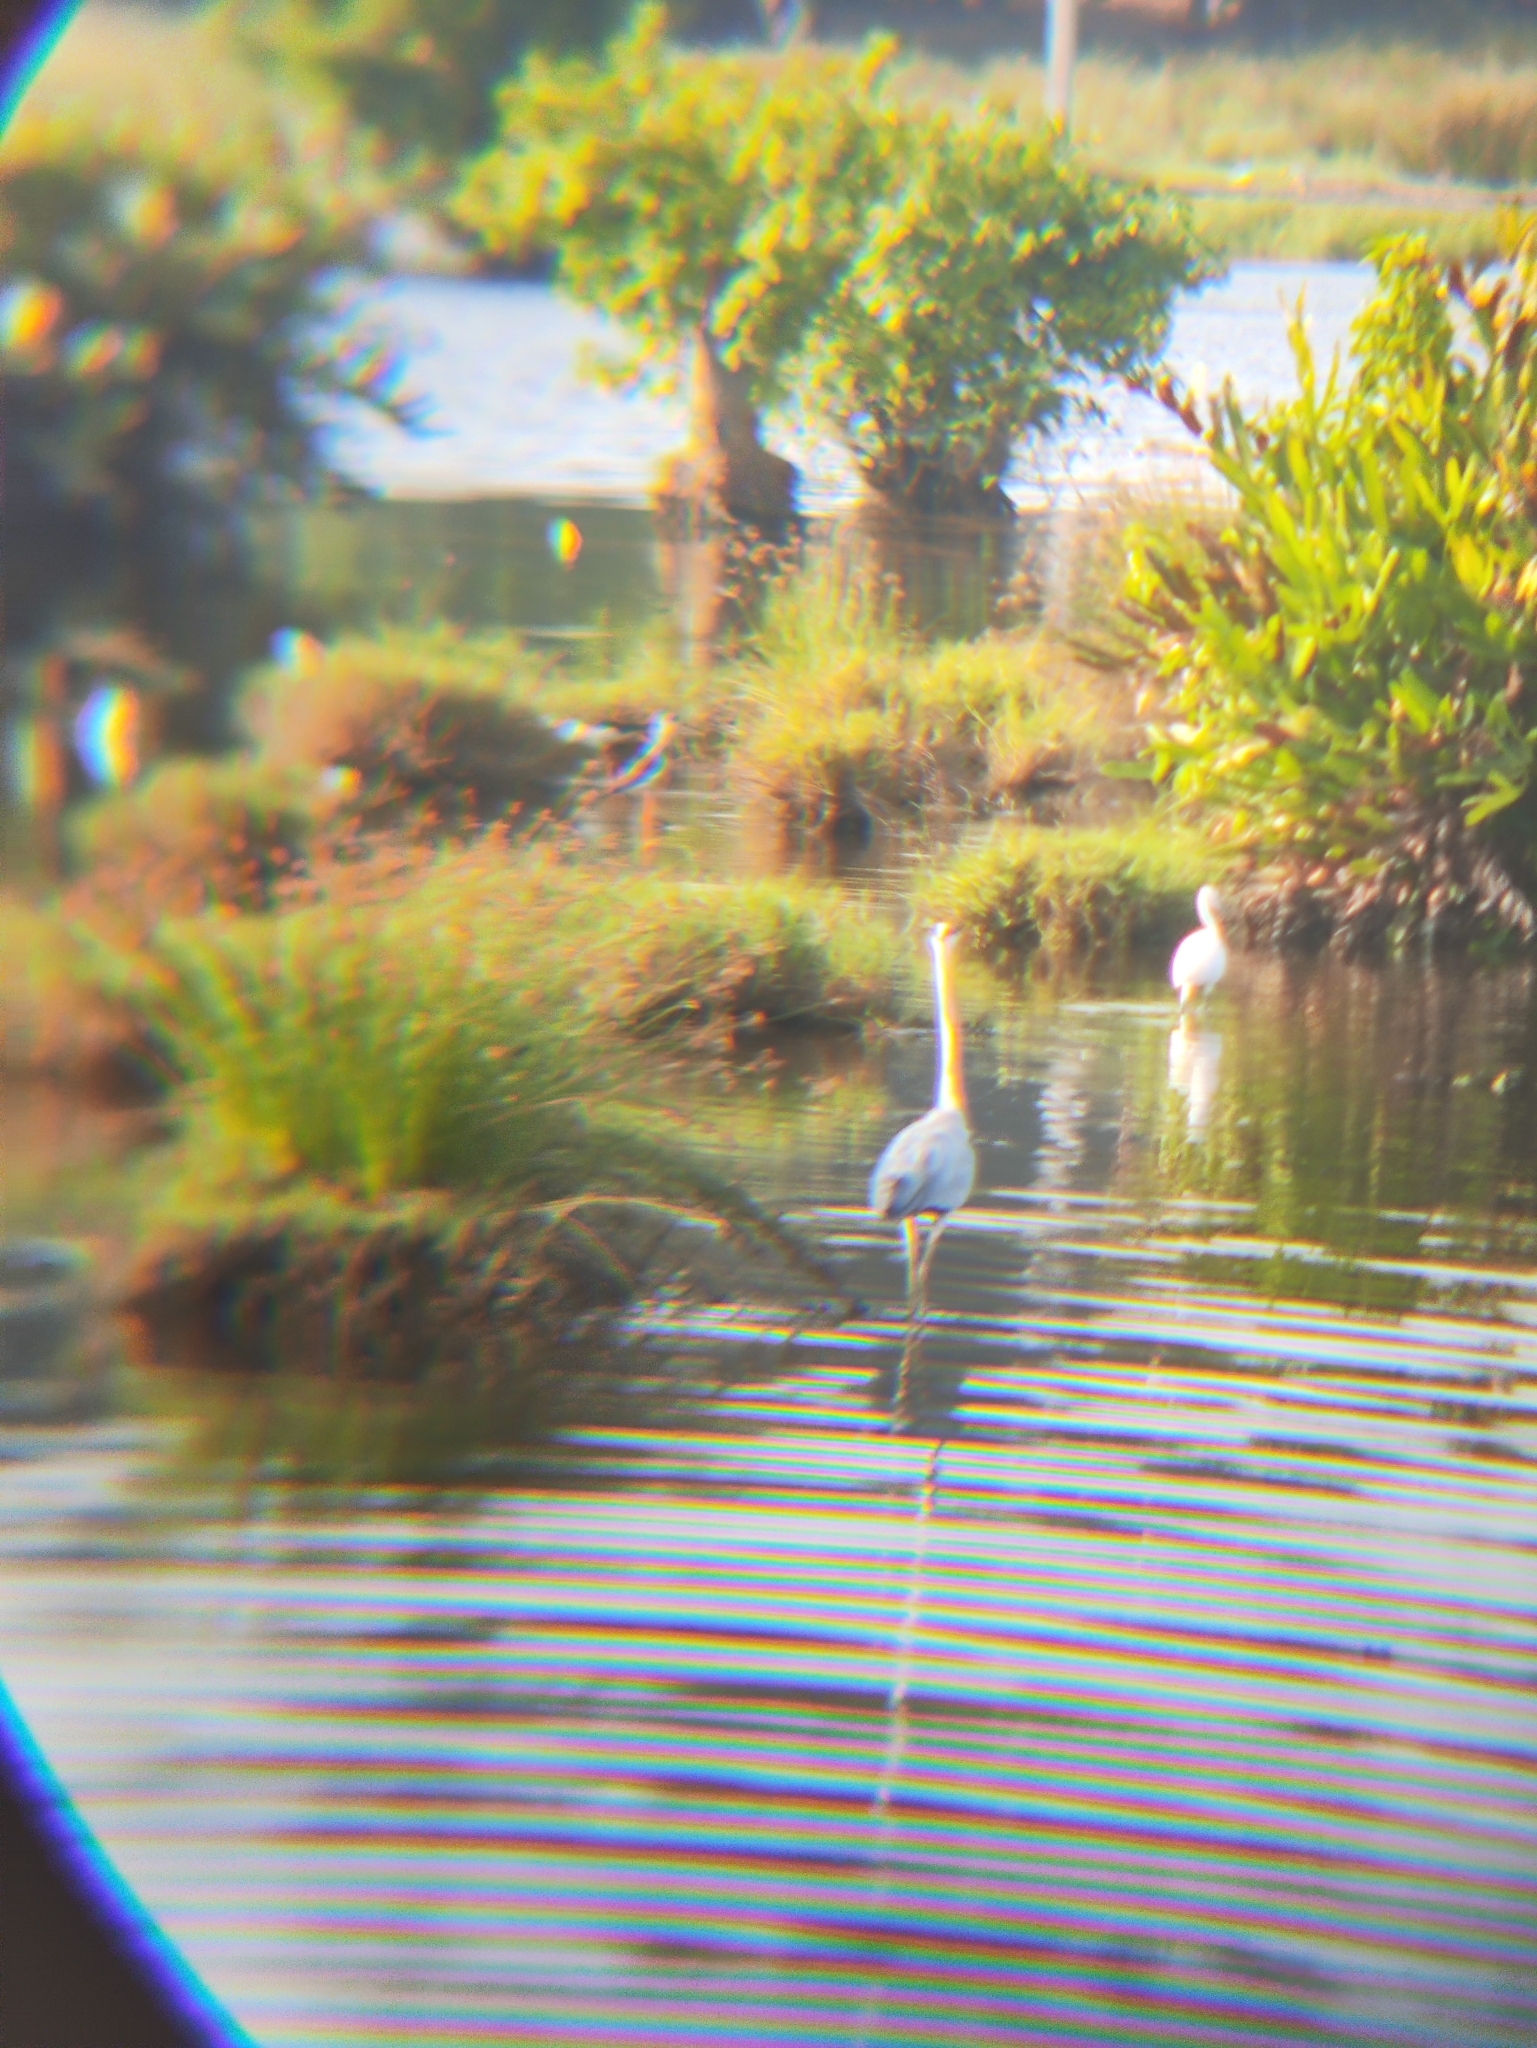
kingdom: Animalia
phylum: Chordata
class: Aves
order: Pelecaniformes
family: Ardeidae
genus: Ardea
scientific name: Ardea cinerea
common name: Grey heron
